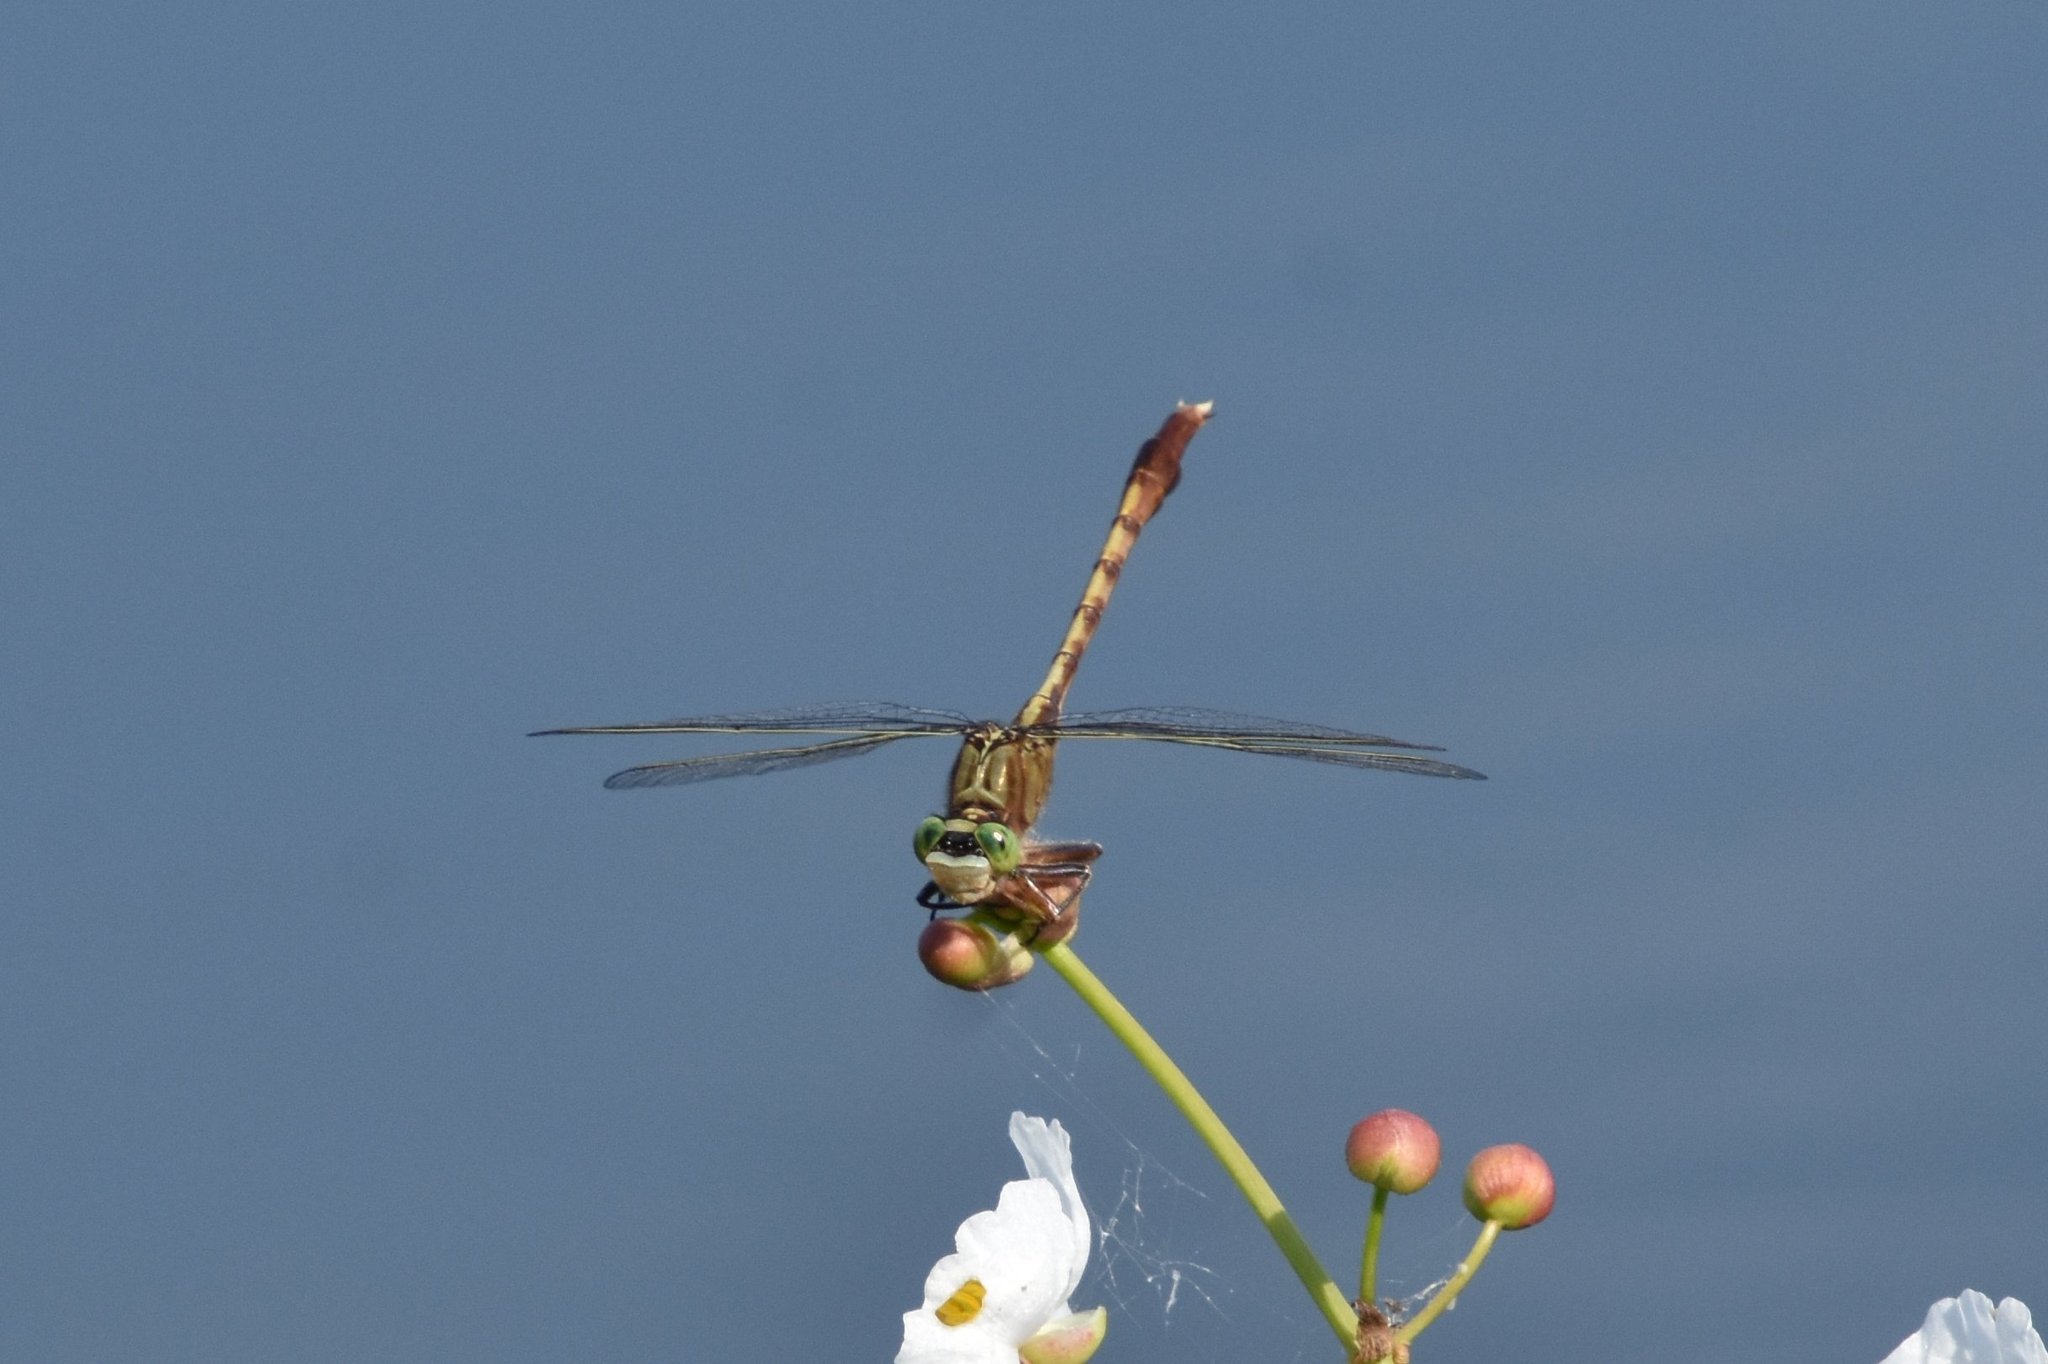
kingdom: Animalia
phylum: Arthropoda
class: Insecta
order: Odonata
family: Gomphidae
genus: Arigomphus
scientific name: Arigomphus pallidus
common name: Gray-green clubtail
